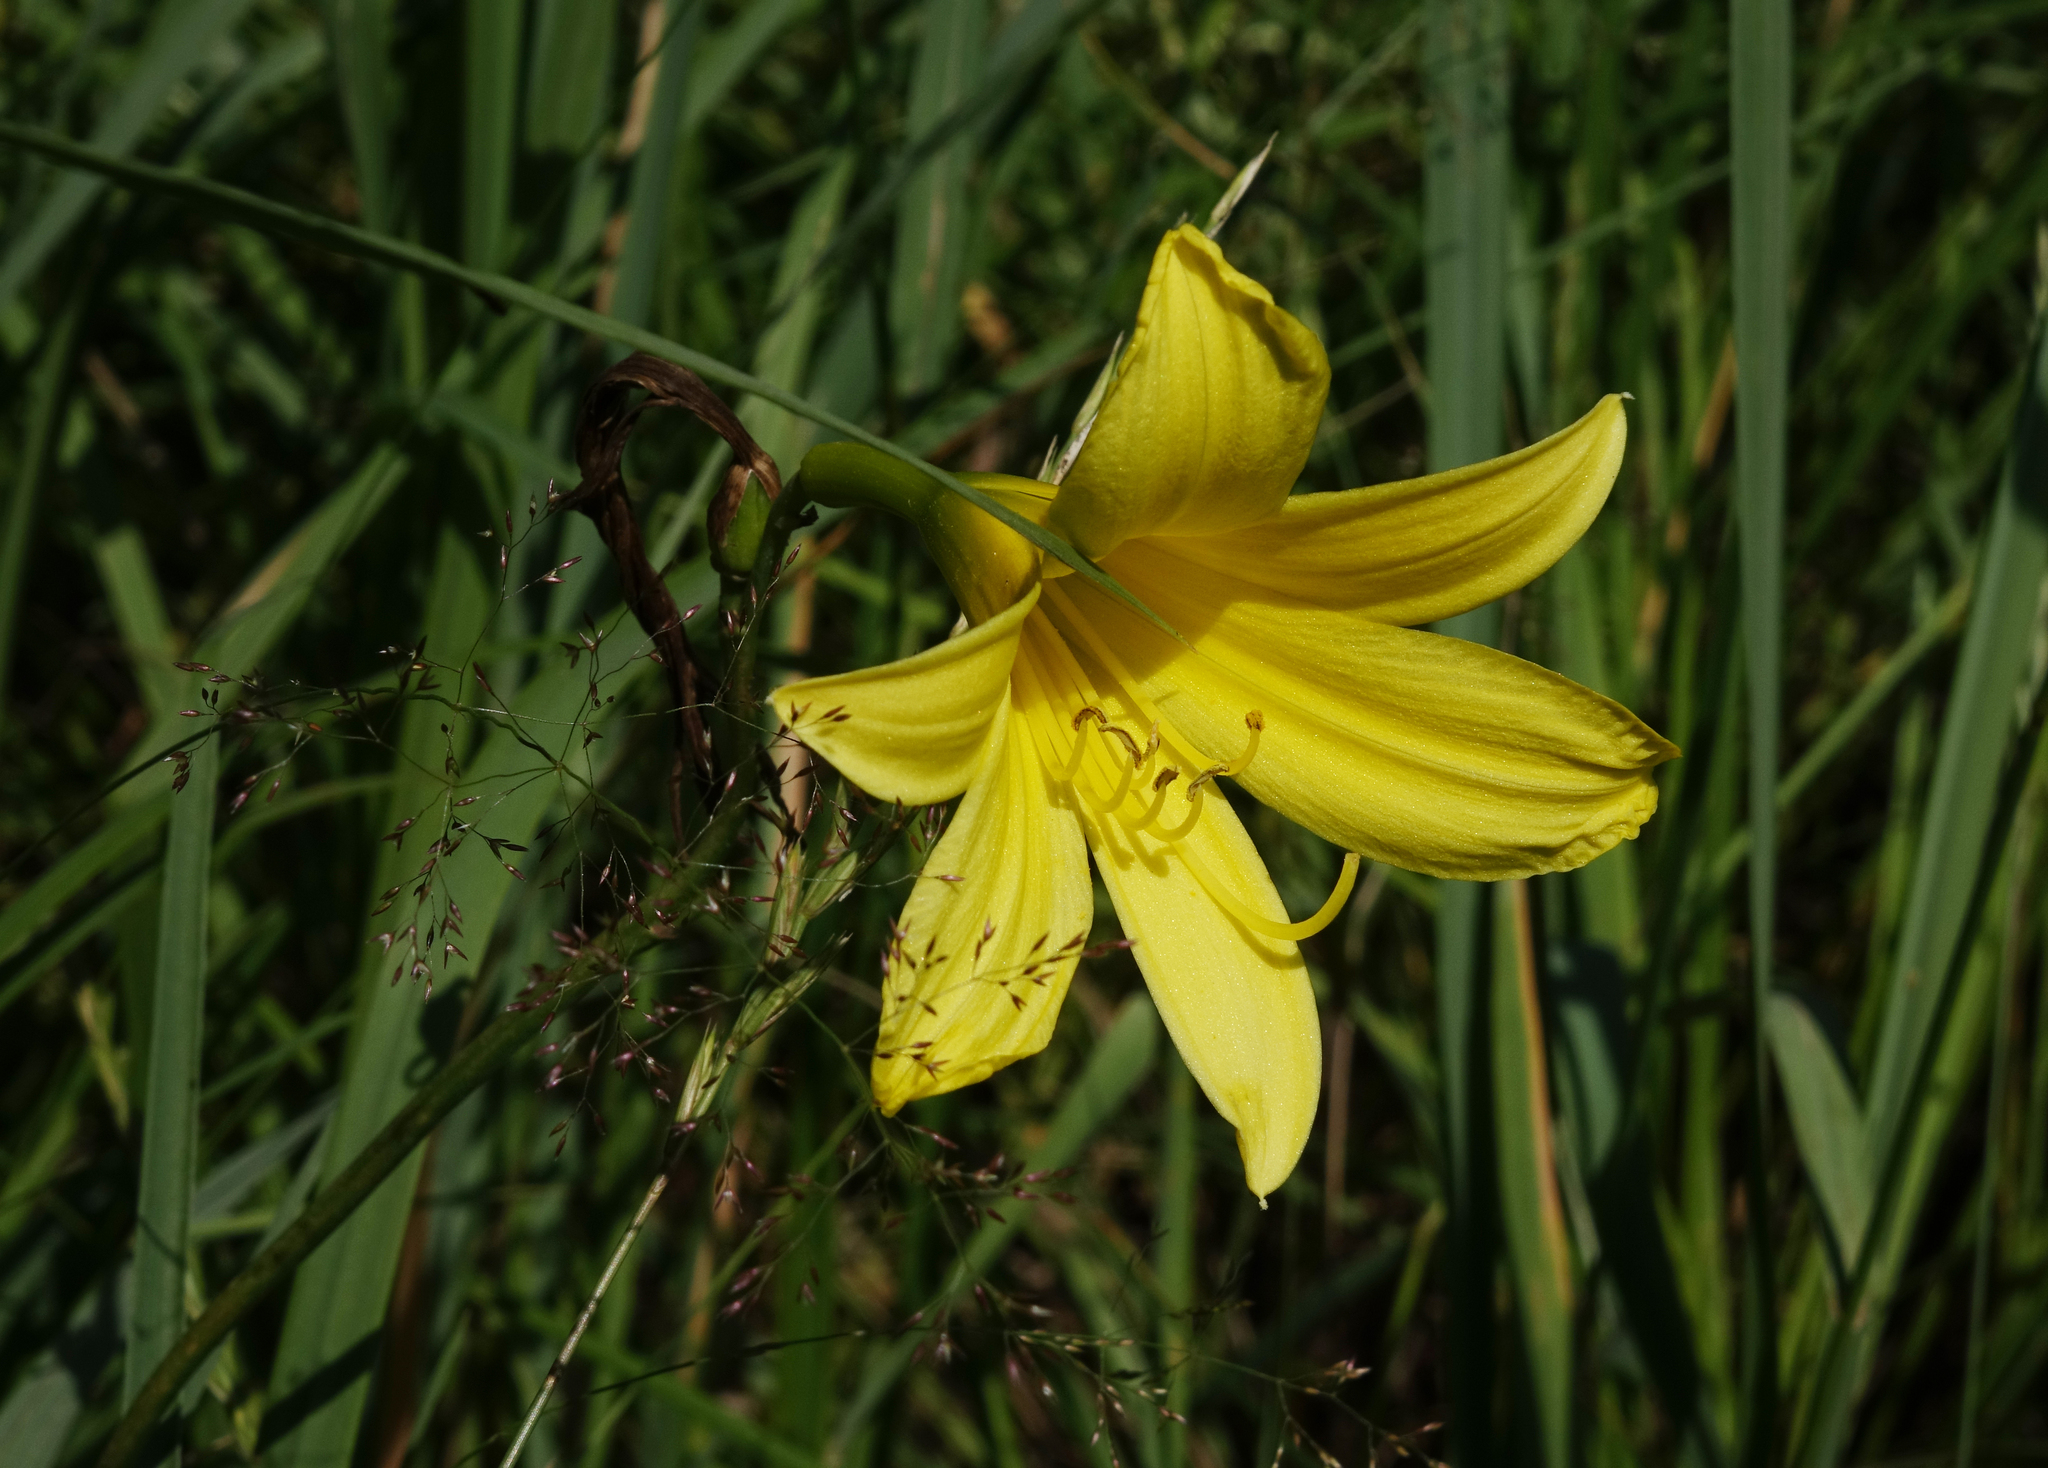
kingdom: Plantae
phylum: Tracheophyta
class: Liliopsida
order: Asparagales
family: Asphodelaceae
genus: Hemerocallis
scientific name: Hemerocallis minor
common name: Small daylily
